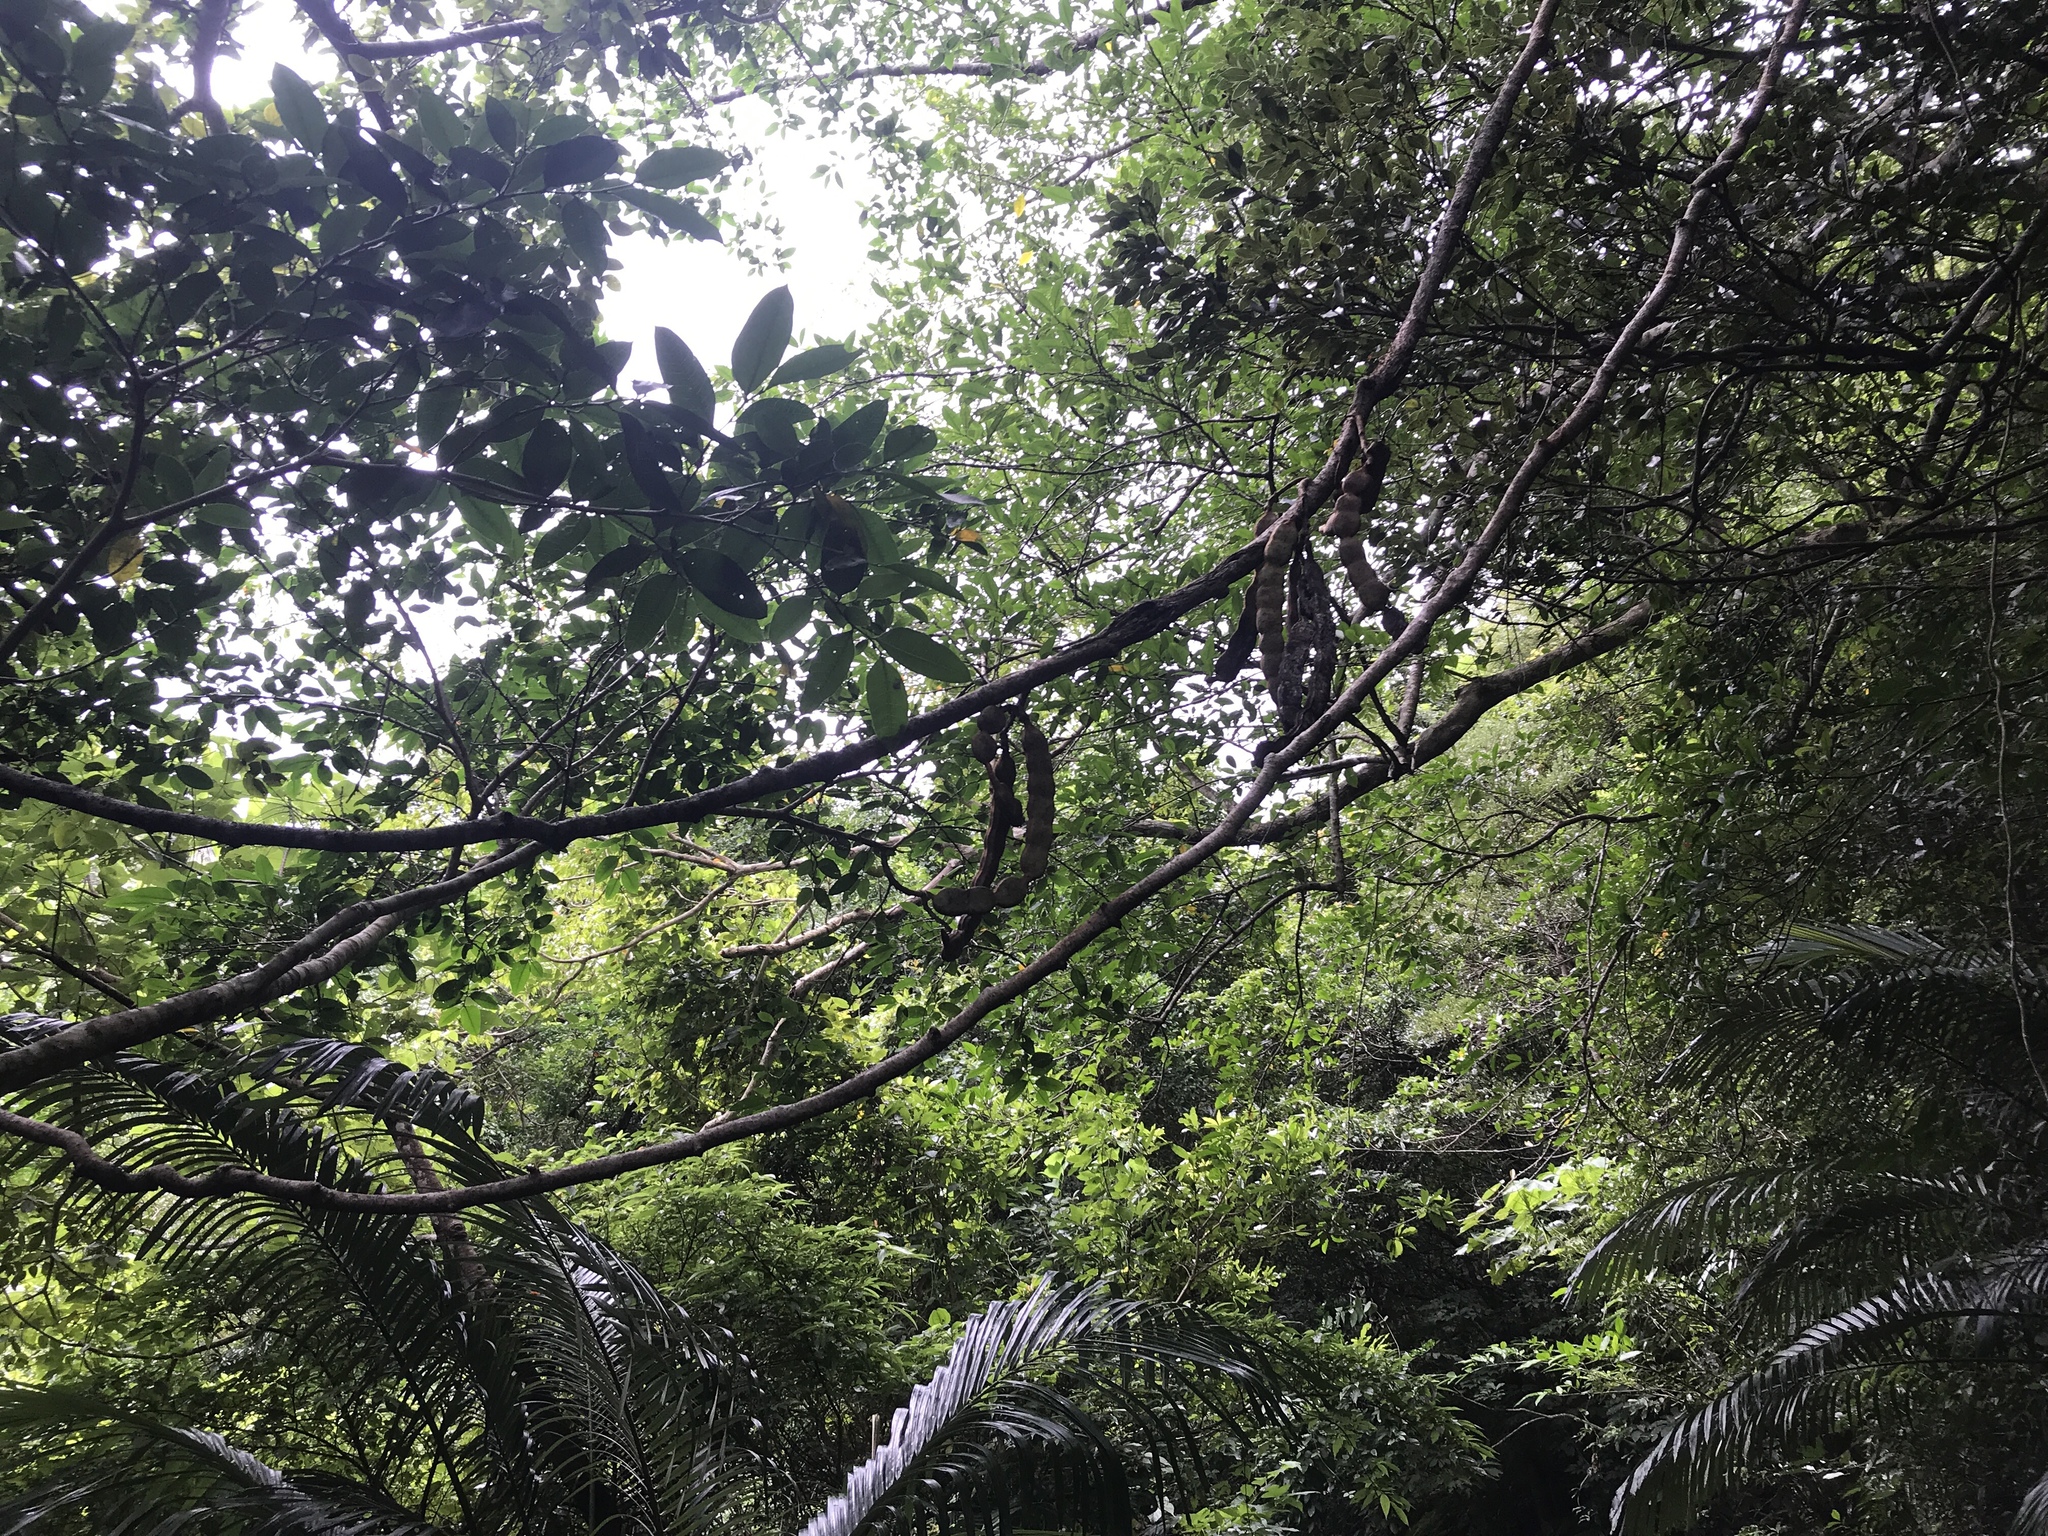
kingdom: Plantae
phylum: Tracheophyta
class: Magnoliopsida
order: Fabales
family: Fabaceae
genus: Entada
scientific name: Entada phaseoloides
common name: Matchbox-bean
